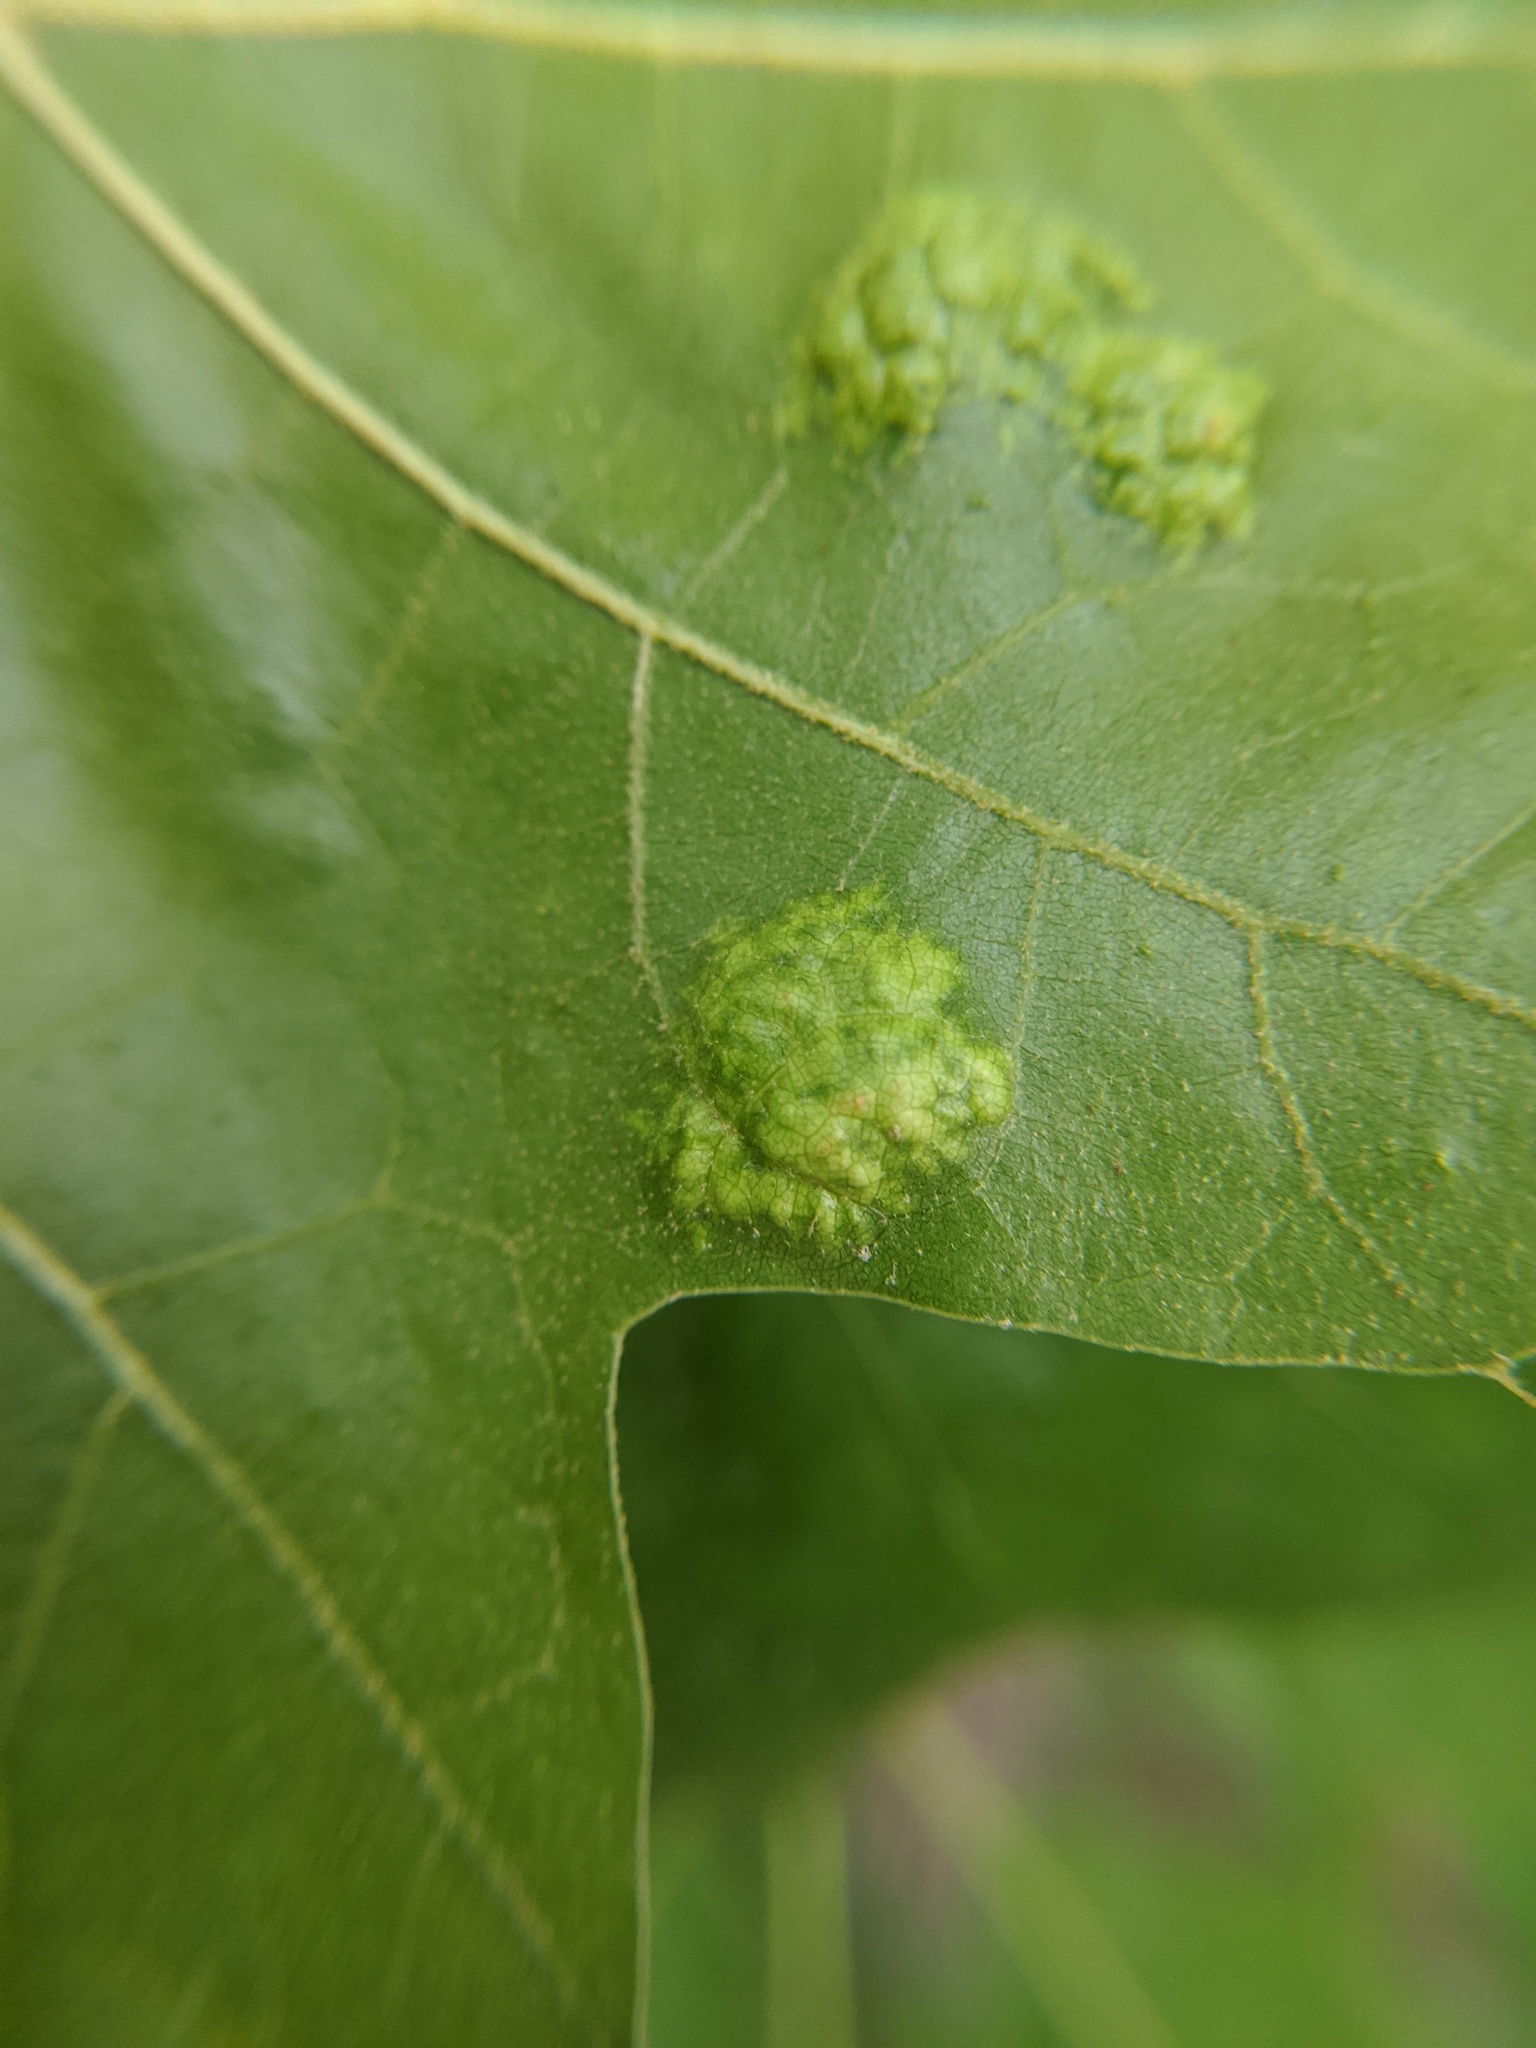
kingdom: Fungi
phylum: Ascomycota
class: Taphrinomycetes
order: Taphrinales
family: Taphrinaceae
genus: Taphrina
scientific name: Taphrina caerulescens
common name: Oak leaf blister
